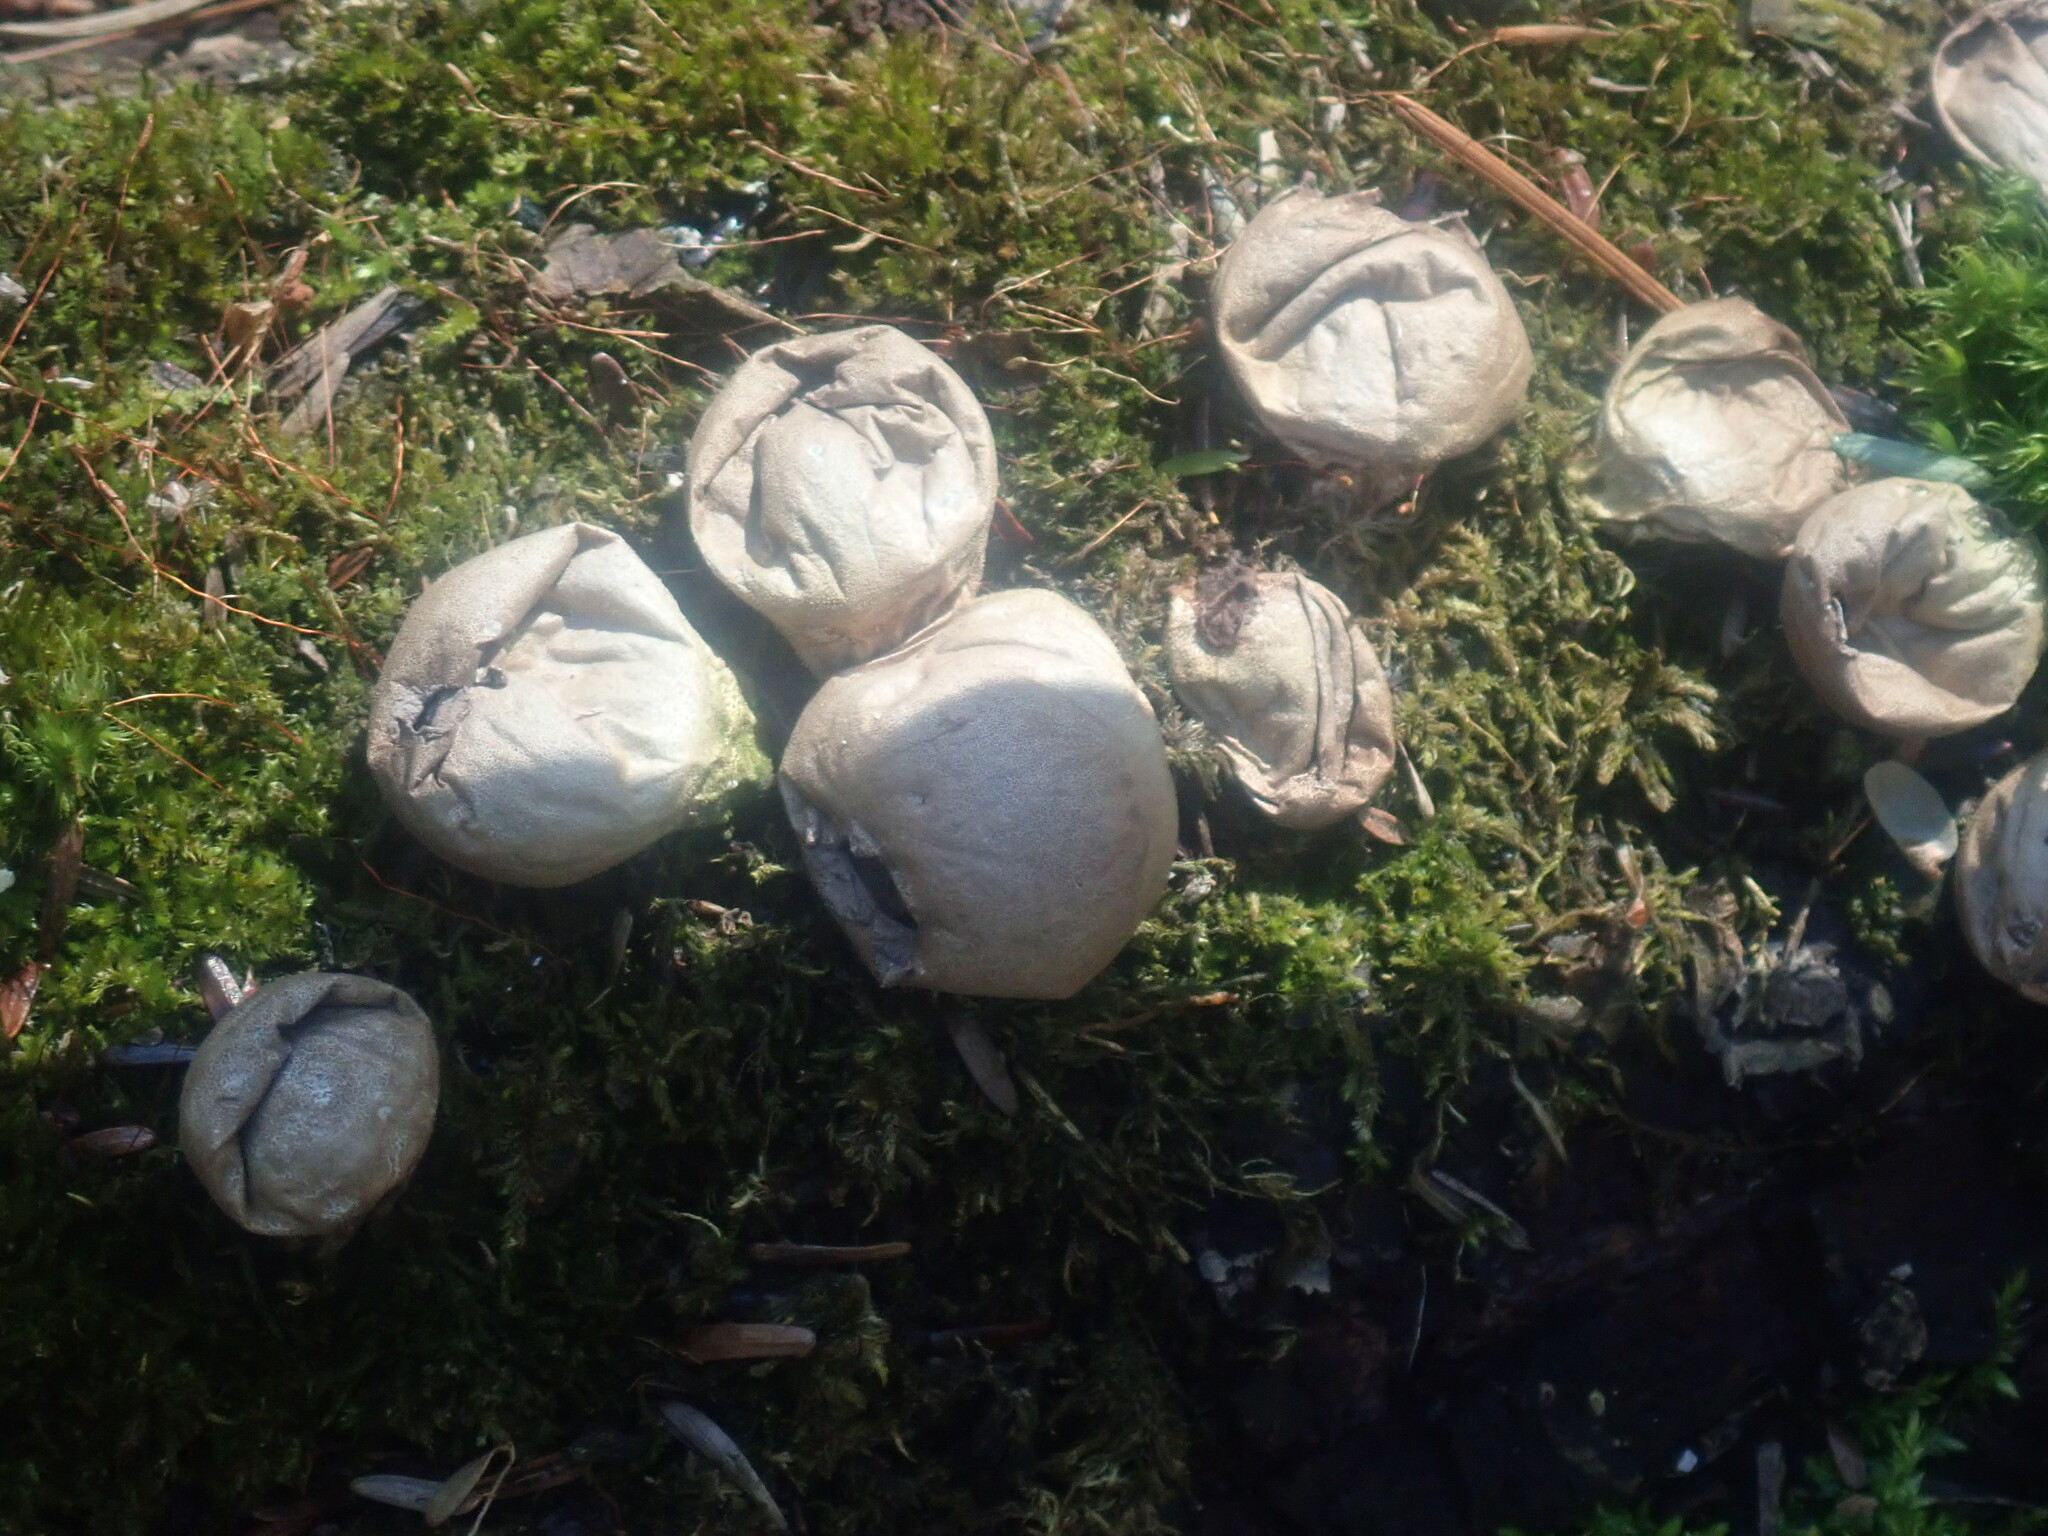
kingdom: Fungi
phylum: Basidiomycota
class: Agaricomycetes
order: Agaricales
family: Lycoperdaceae
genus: Apioperdon
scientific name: Apioperdon pyriforme
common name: Pear-shaped puffball
